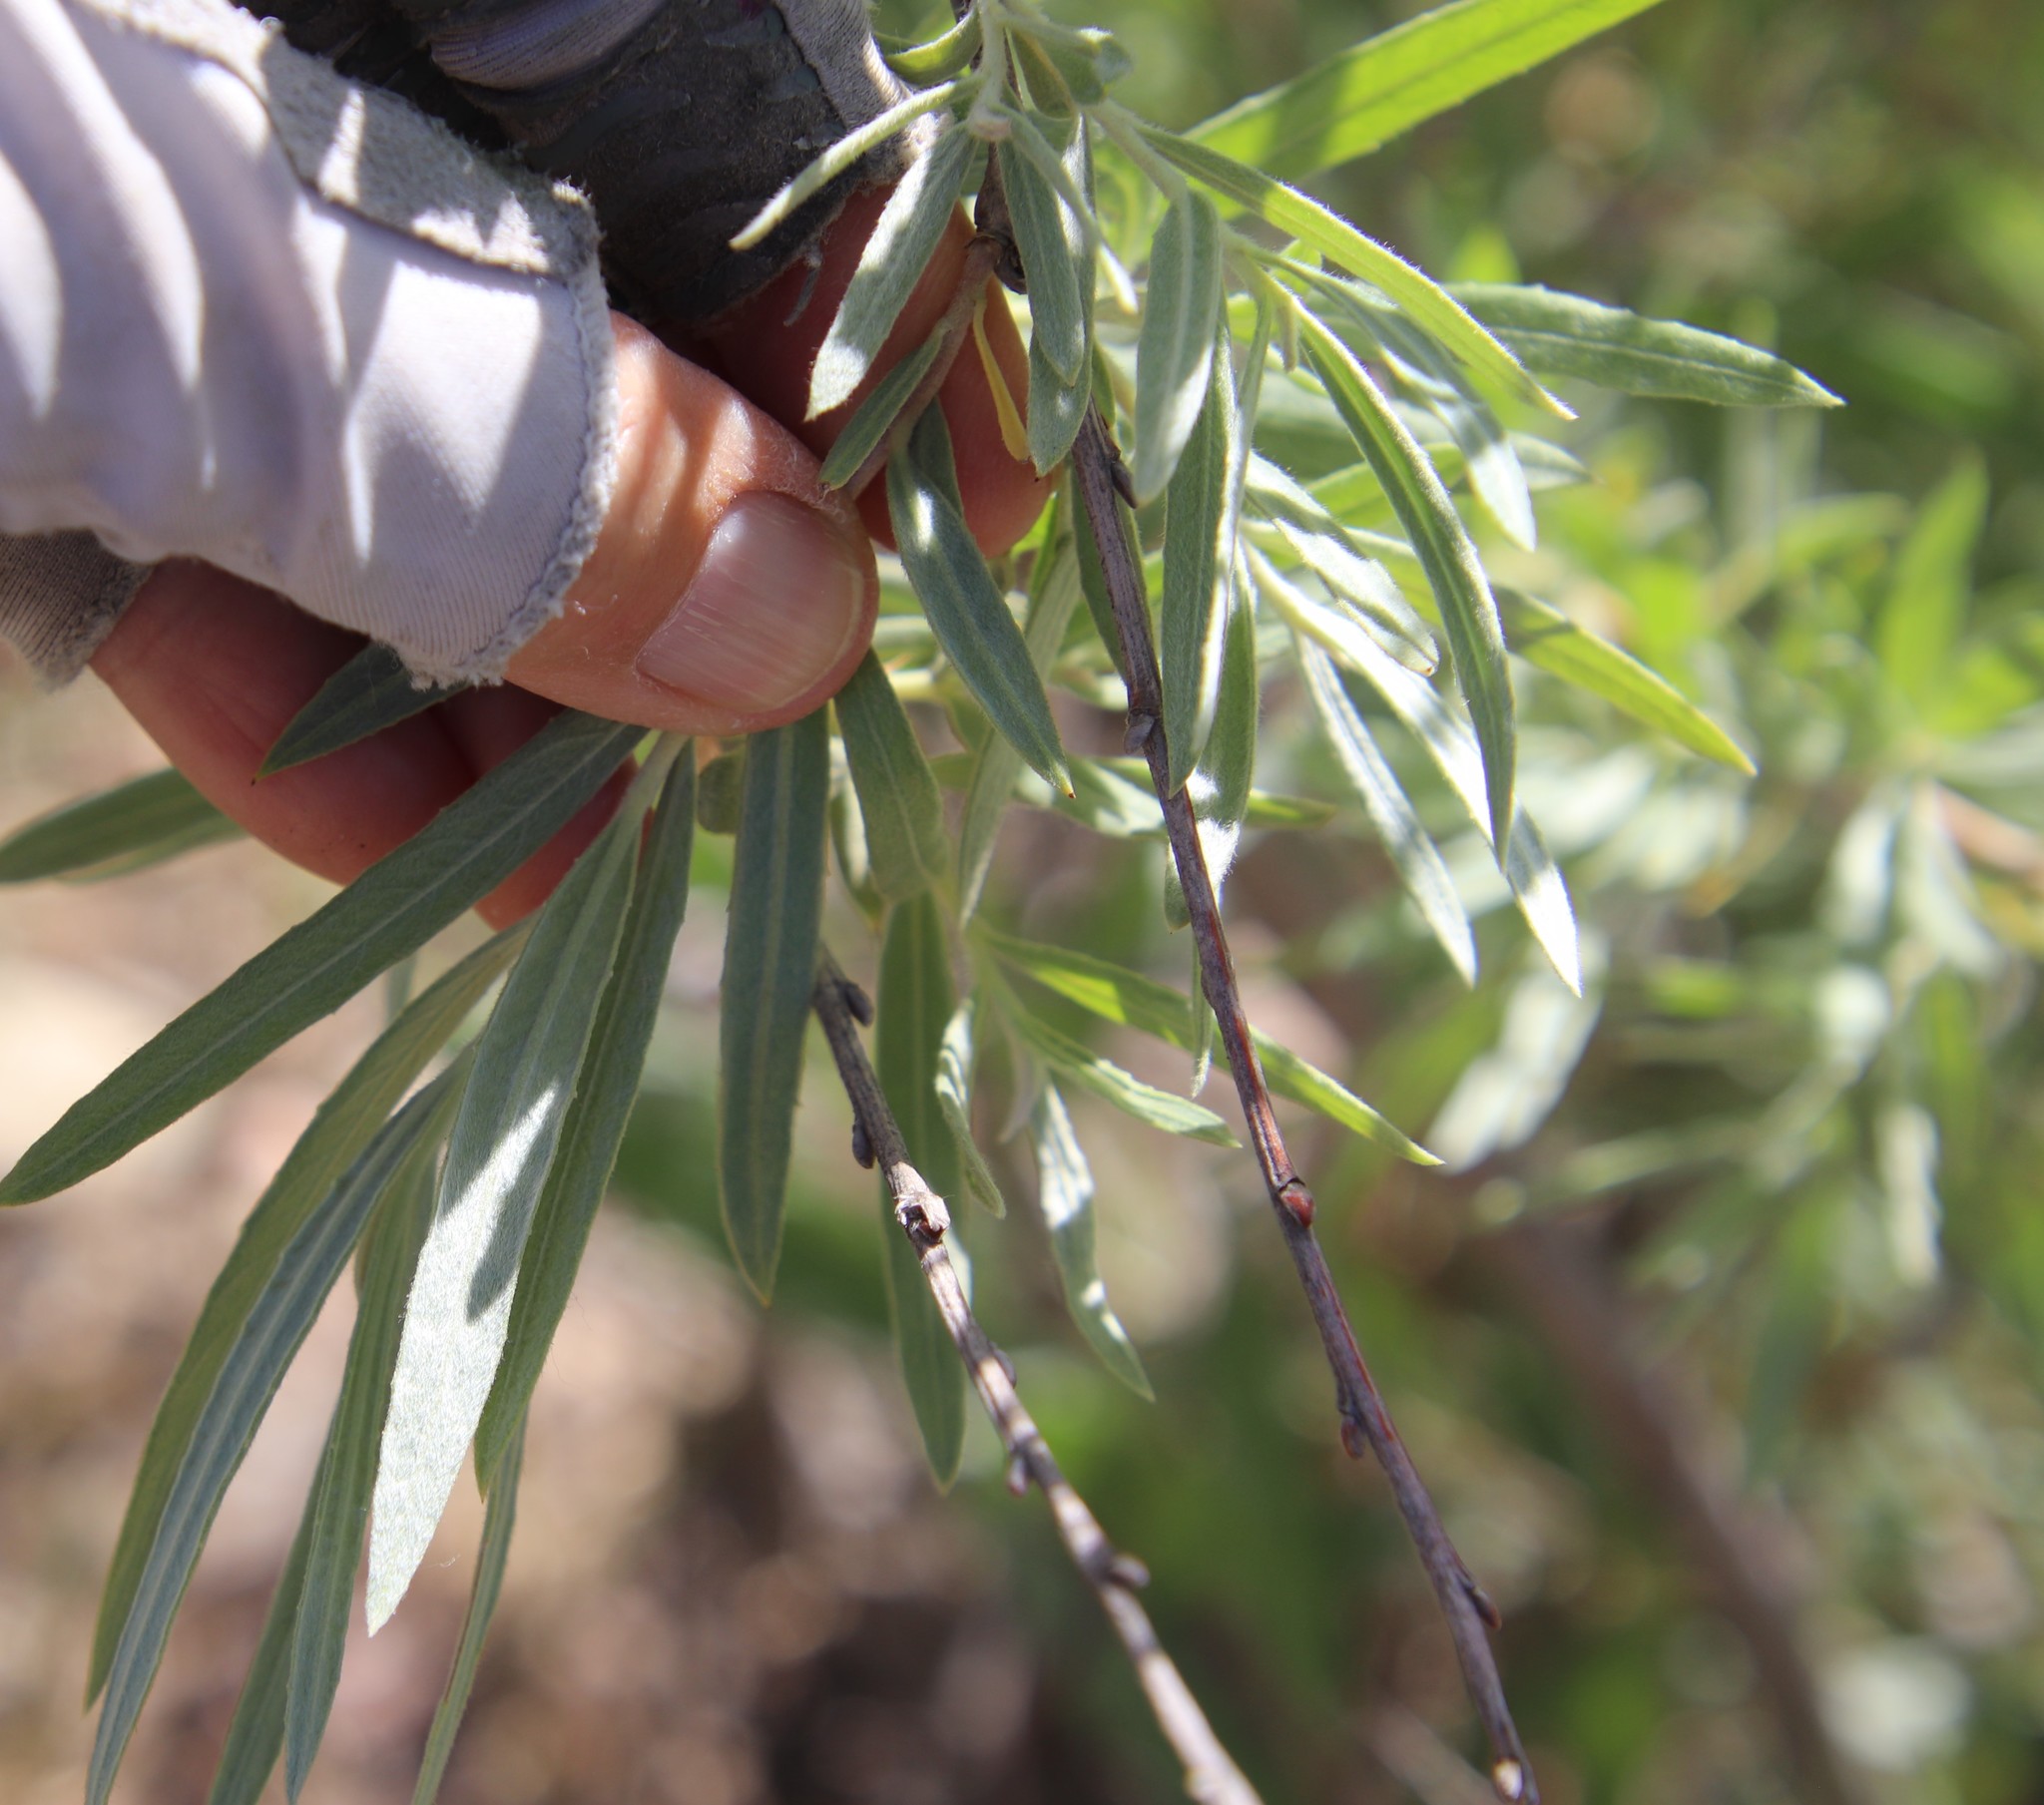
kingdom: Plantae
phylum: Tracheophyta
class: Magnoliopsida
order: Malpighiales
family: Salicaceae
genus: Salix
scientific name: Salix exigua
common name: Coyote willow
